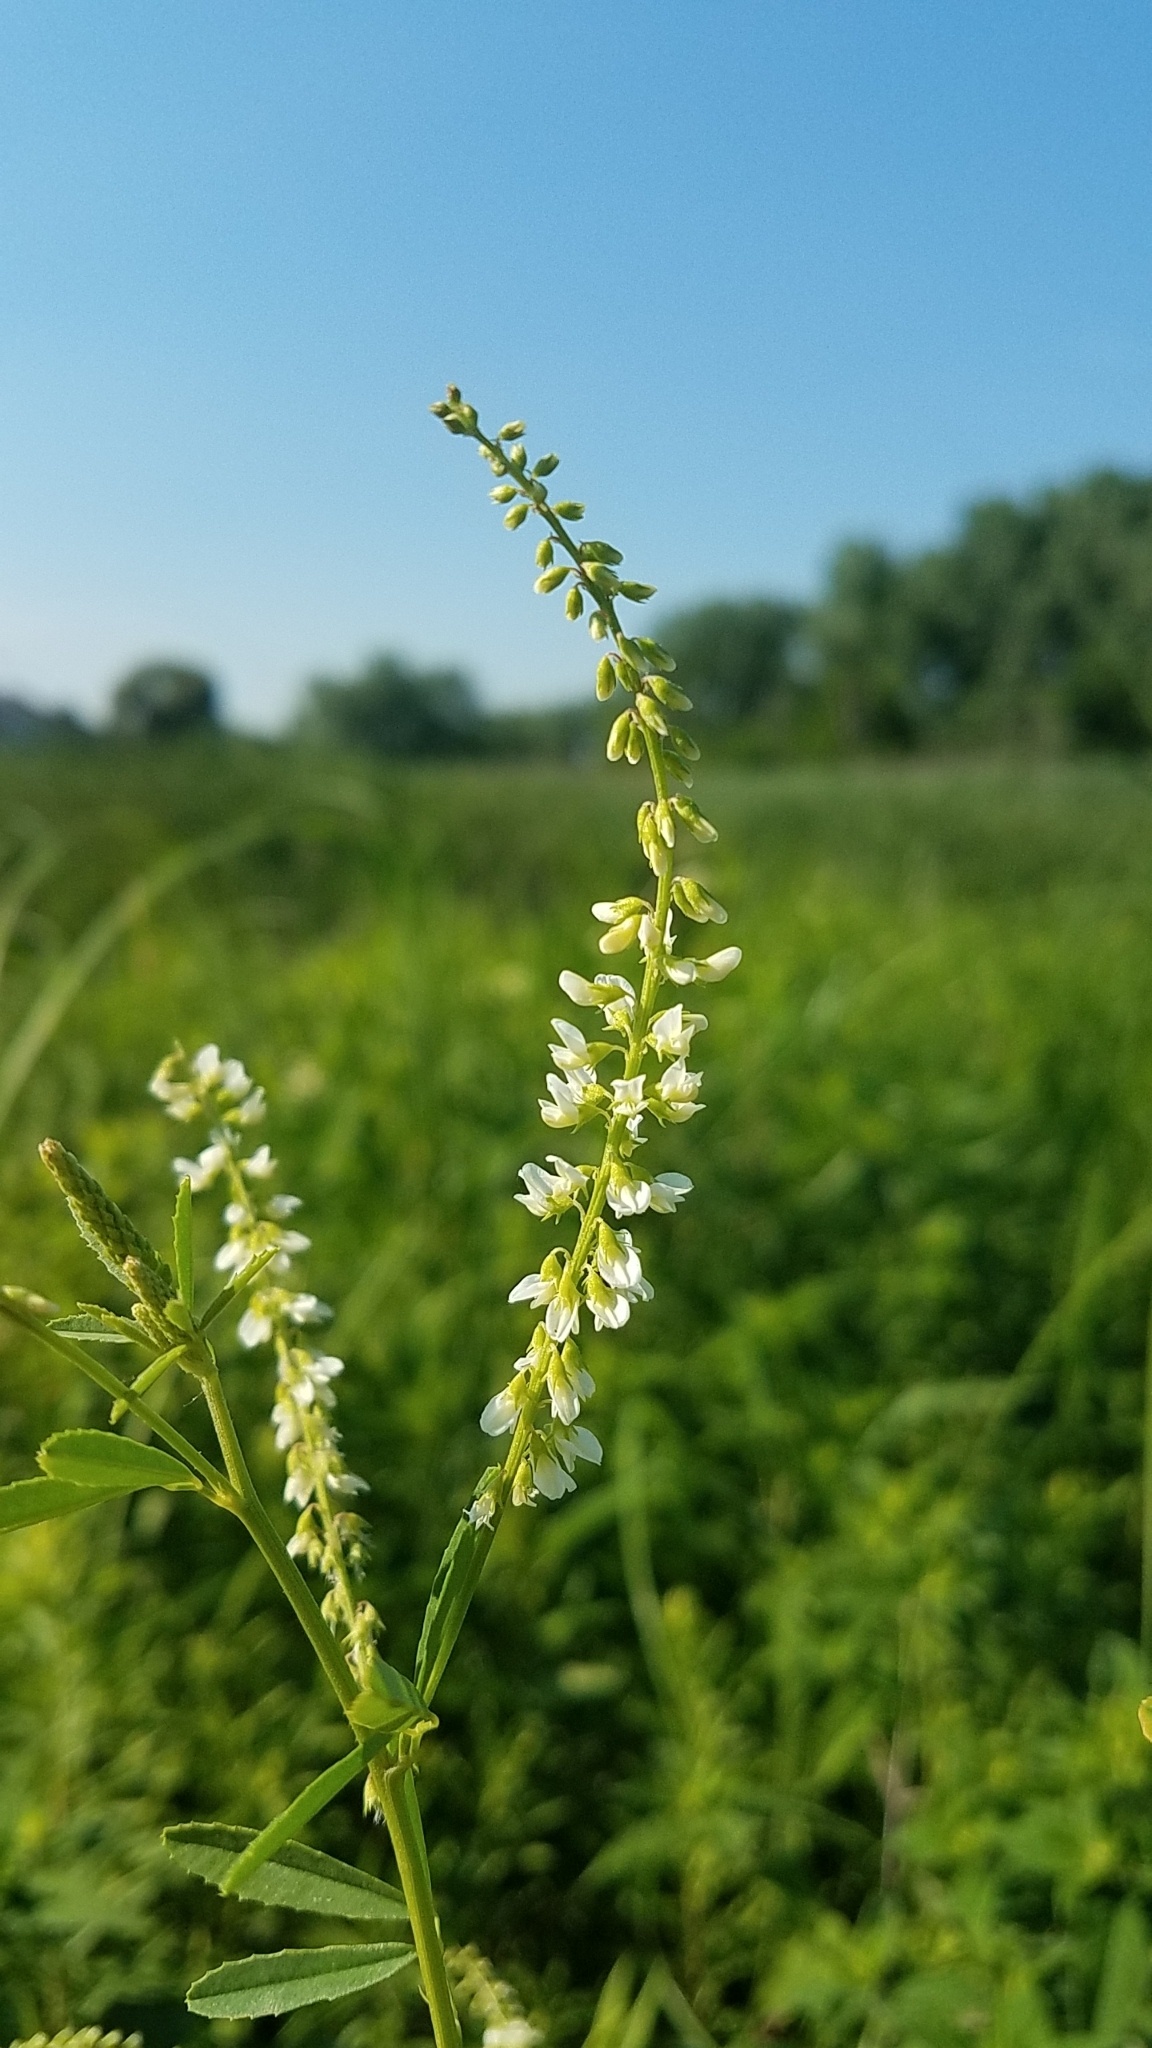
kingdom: Plantae
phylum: Tracheophyta
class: Magnoliopsida
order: Fabales
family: Fabaceae
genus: Melilotus
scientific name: Melilotus albus
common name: White melilot
